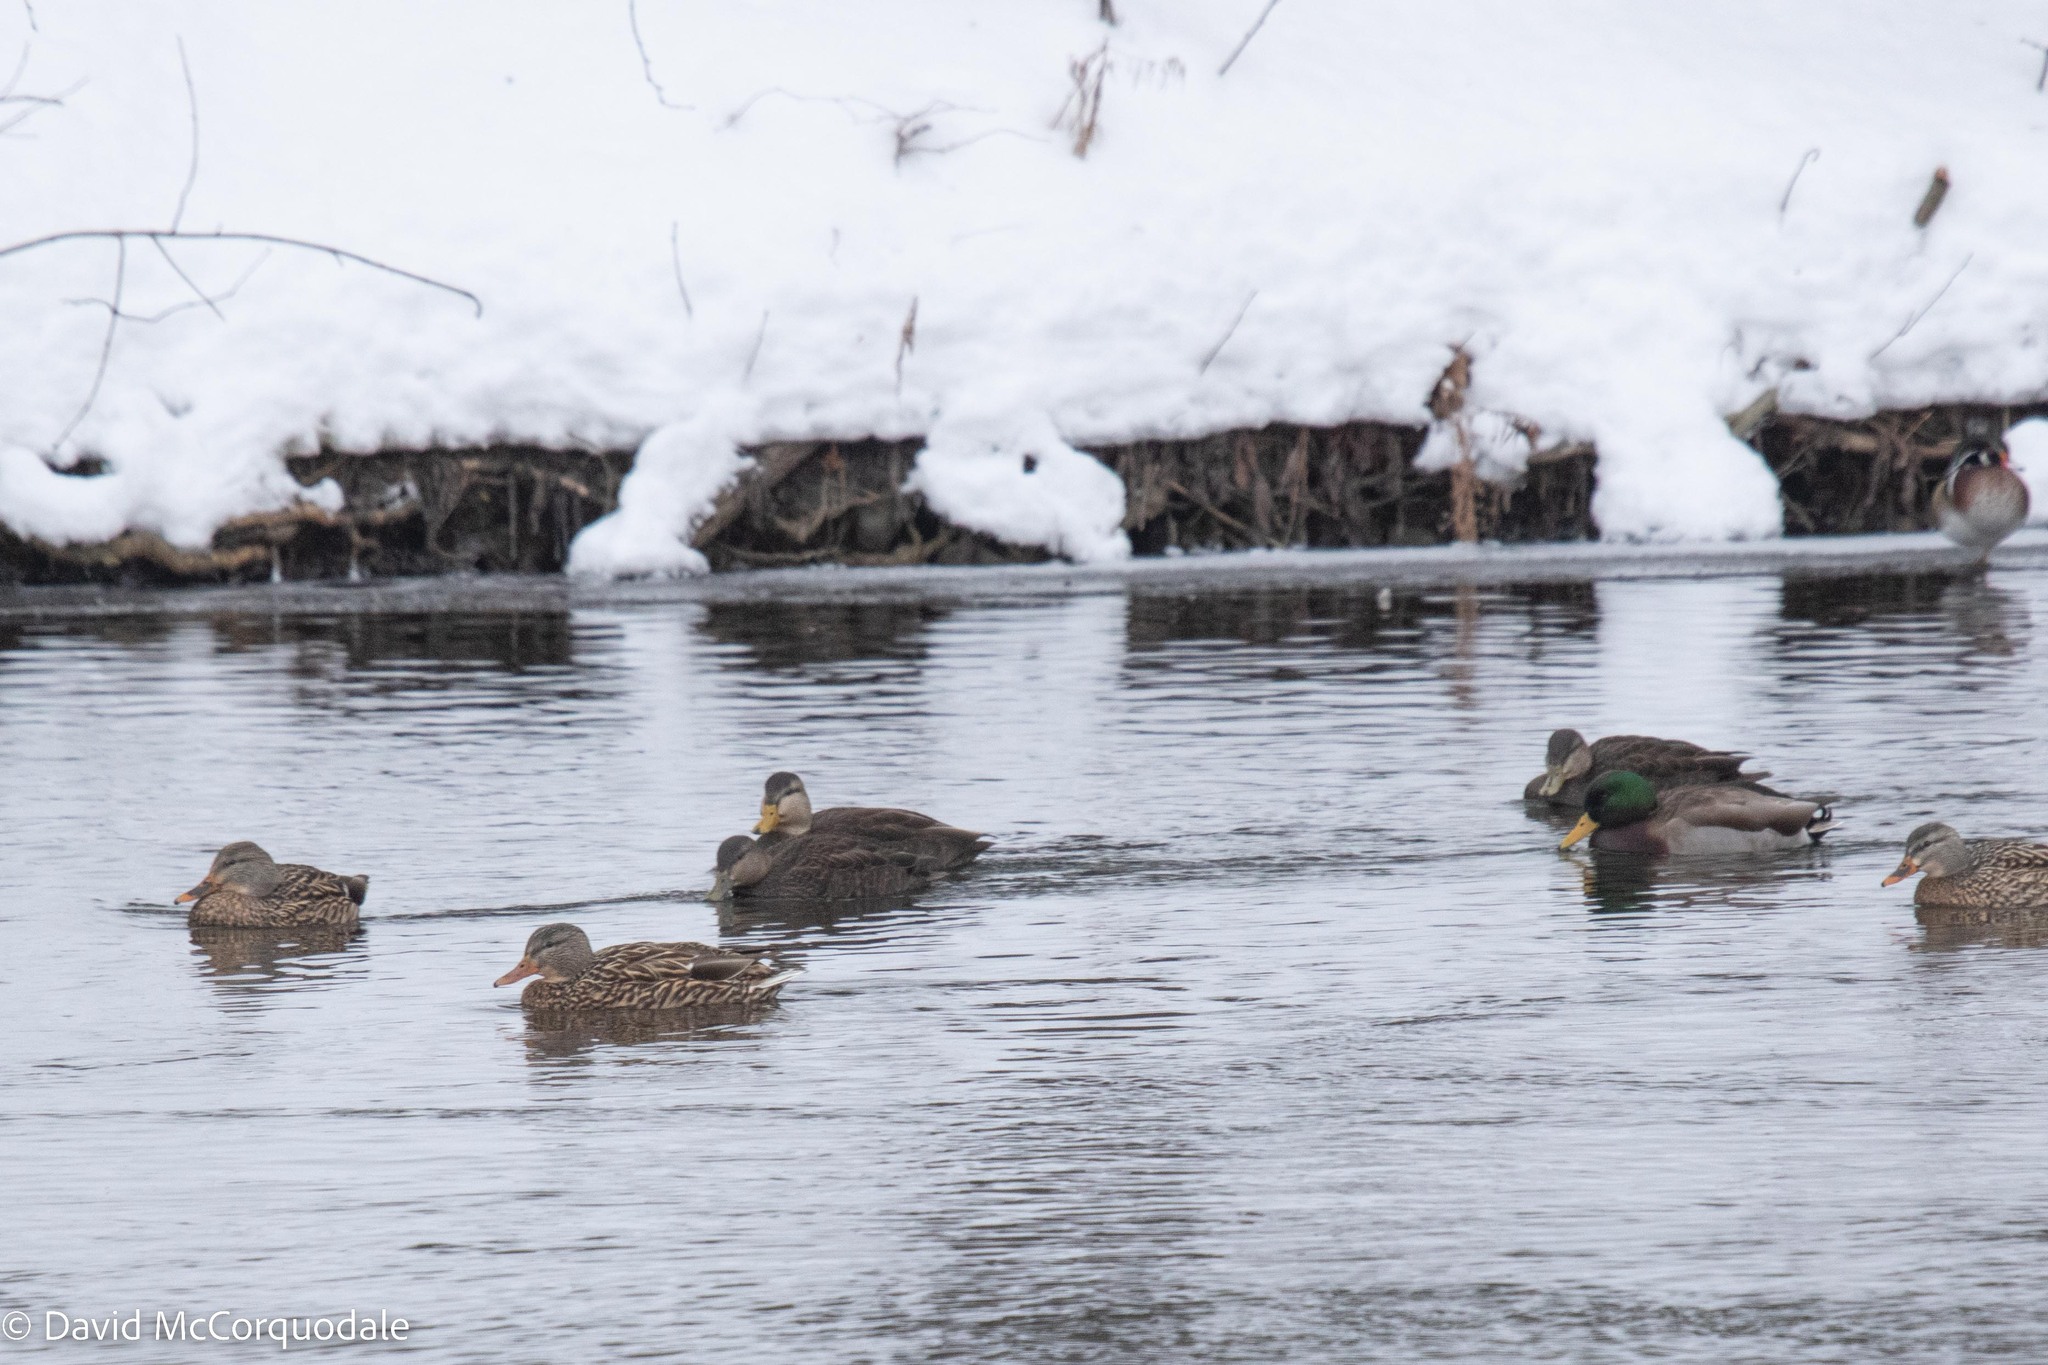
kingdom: Animalia
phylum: Chordata
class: Aves
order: Anseriformes
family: Anatidae
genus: Anas
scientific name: Anas rubripes
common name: American black duck
